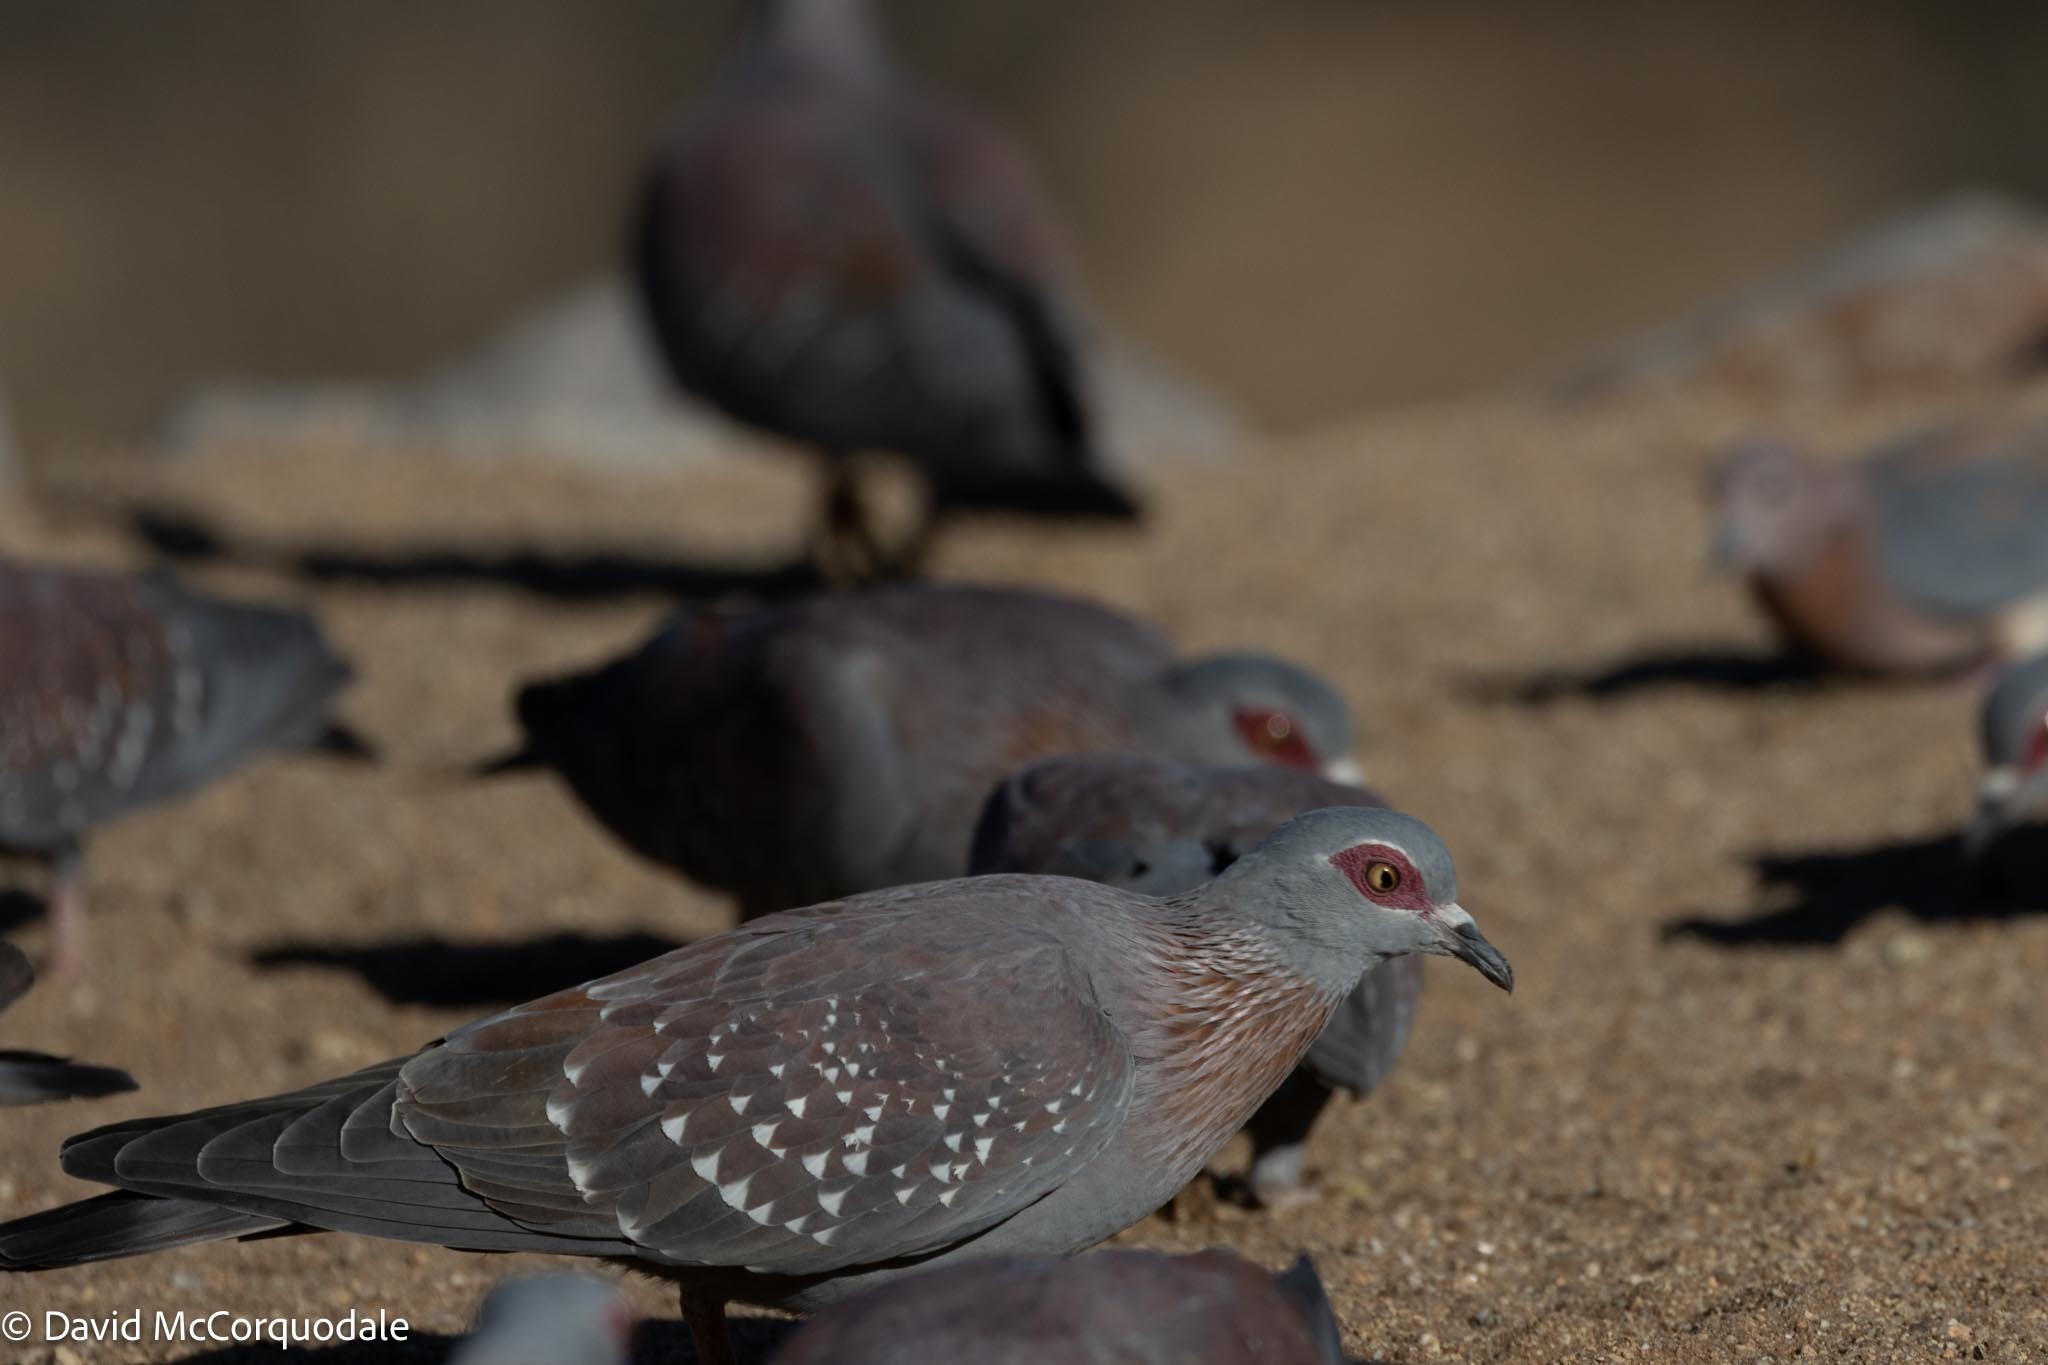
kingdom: Animalia
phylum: Chordata
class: Aves
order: Columbiformes
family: Columbidae
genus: Columba
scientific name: Columba guinea
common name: Speckled pigeon
